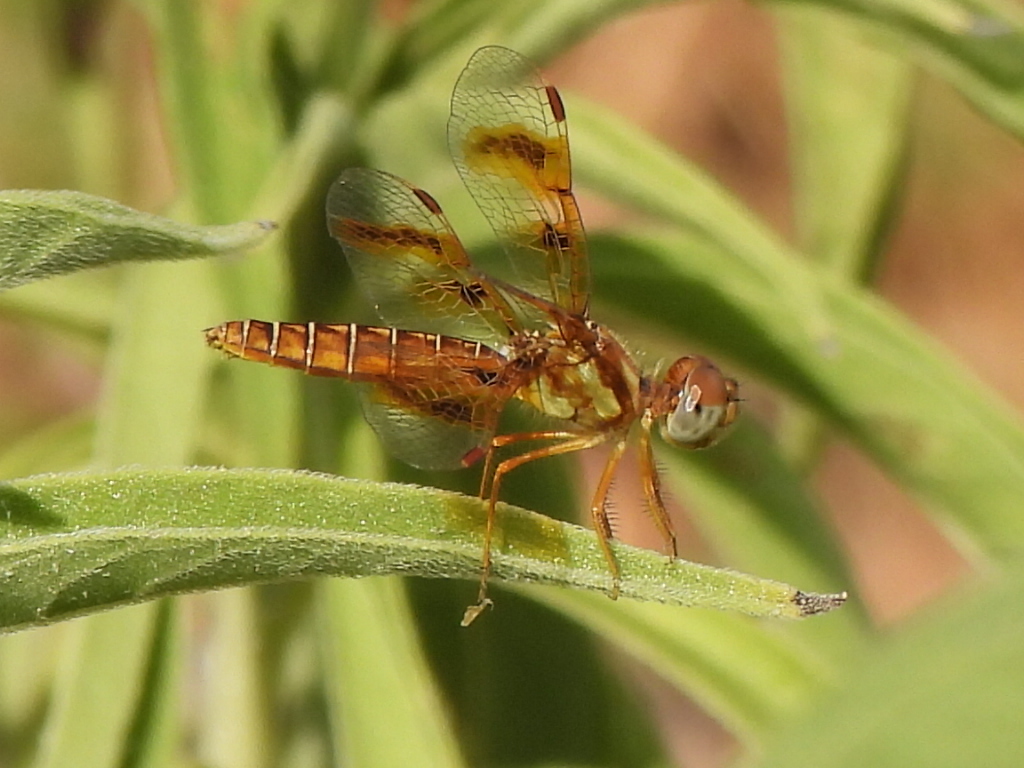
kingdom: Animalia
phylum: Arthropoda
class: Insecta
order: Odonata
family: Libellulidae
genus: Perithemis
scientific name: Perithemis tenera
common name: Eastern amberwing
